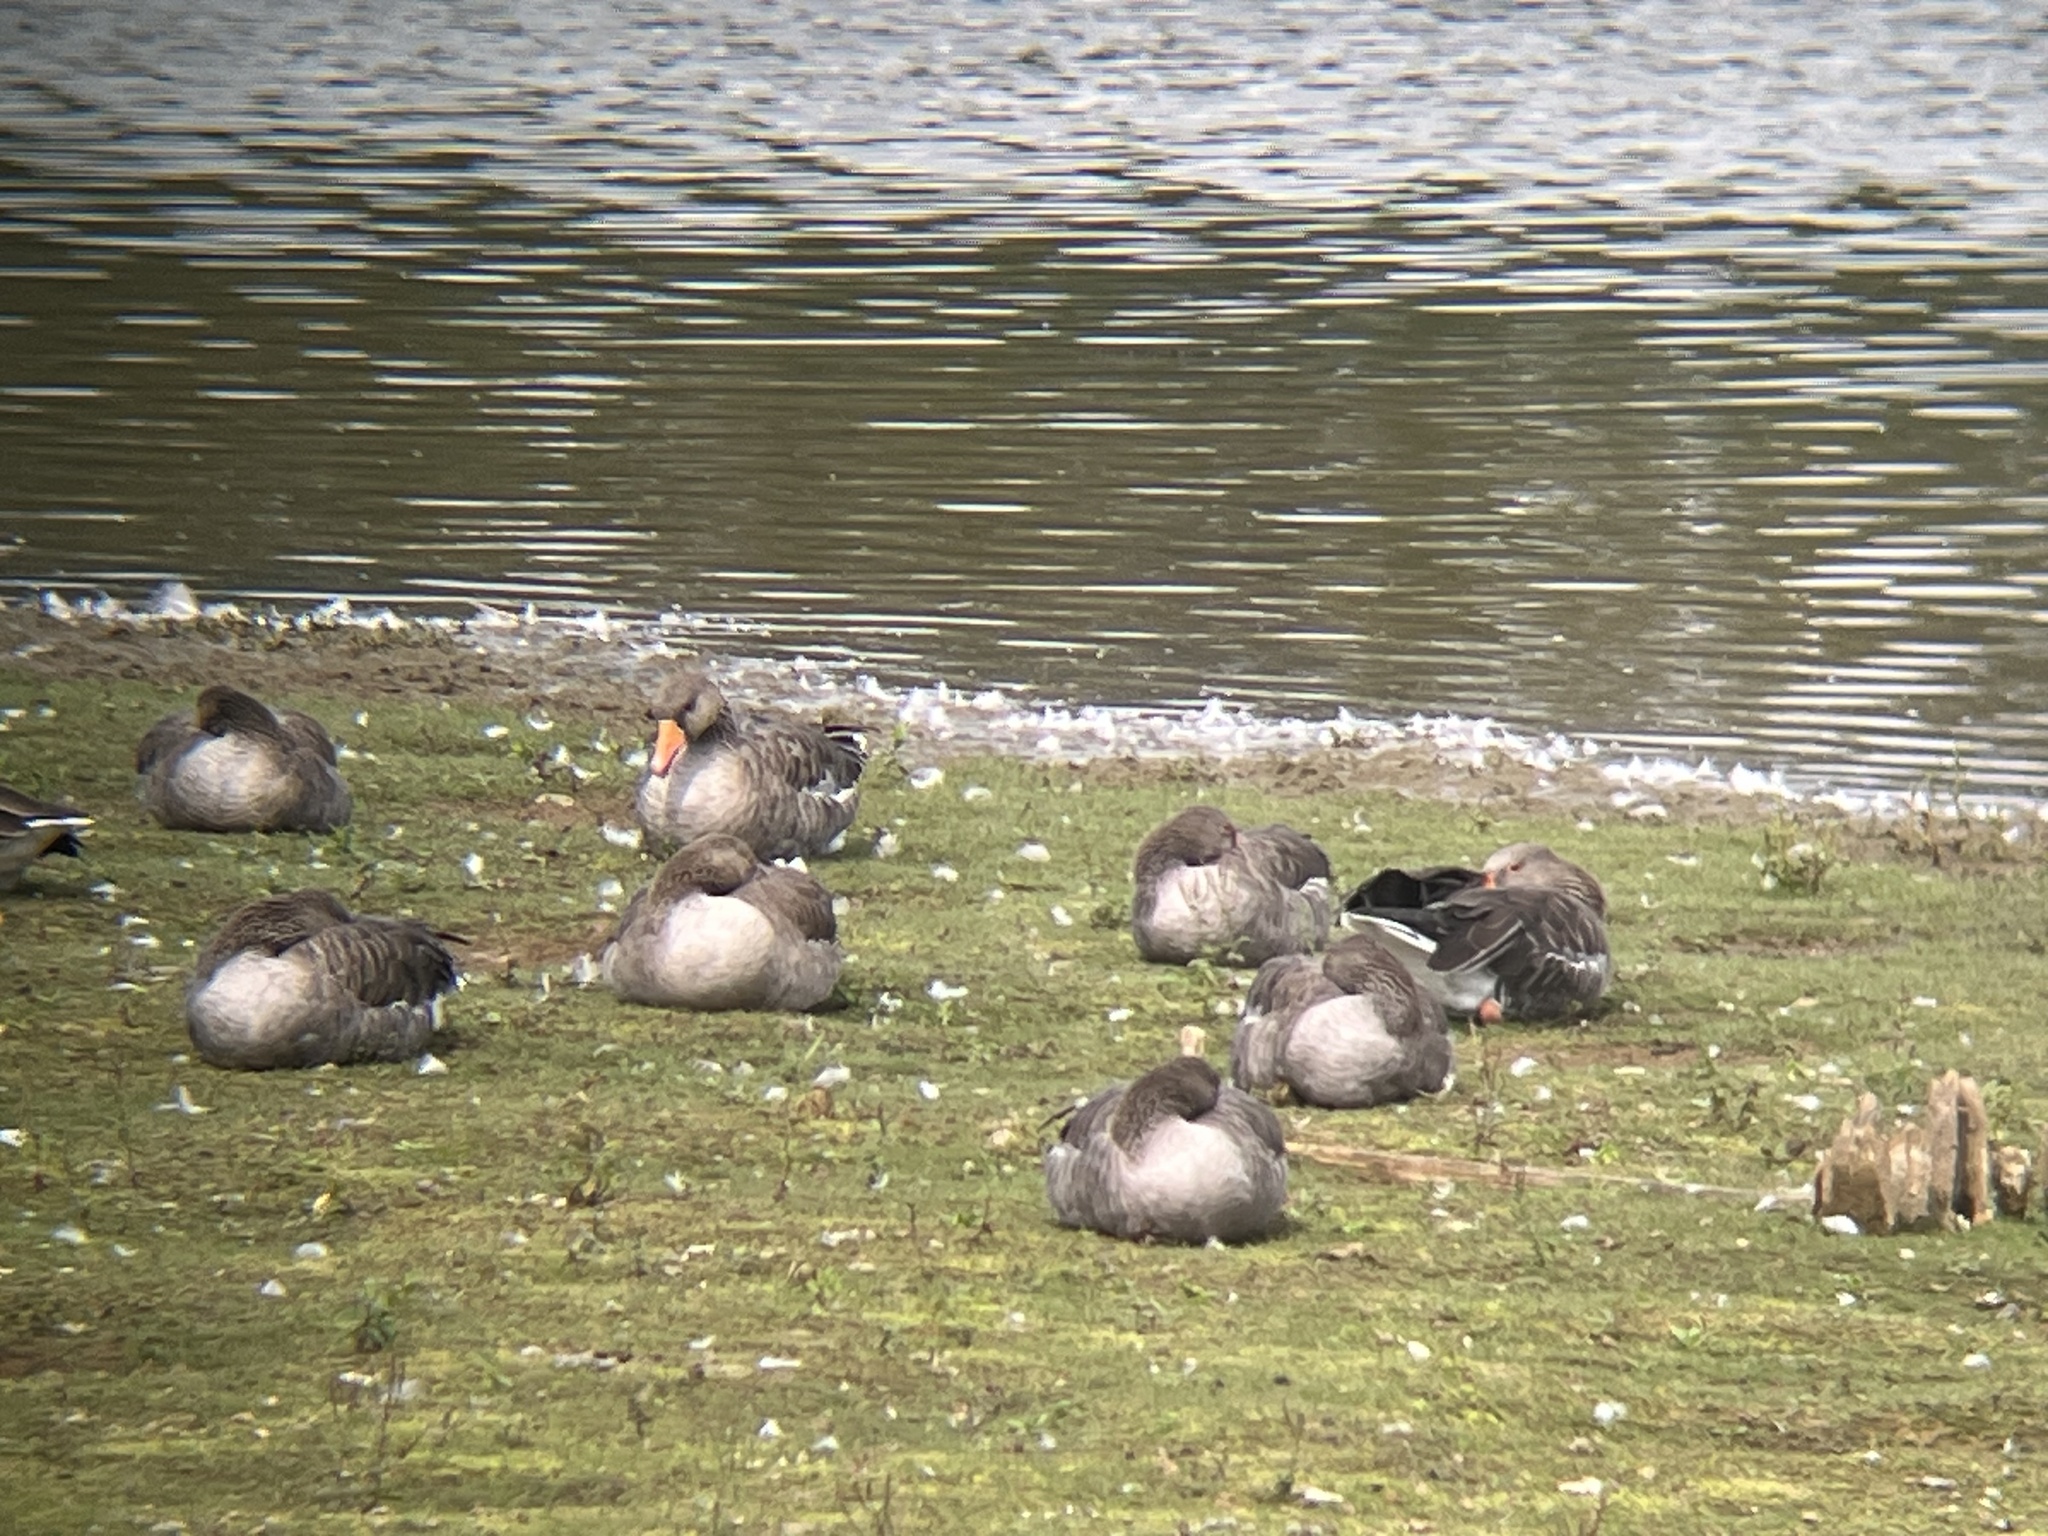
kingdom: Animalia
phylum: Chordata
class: Aves
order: Anseriformes
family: Anatidae
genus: Anser
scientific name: Anser anser
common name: Greylag goose
